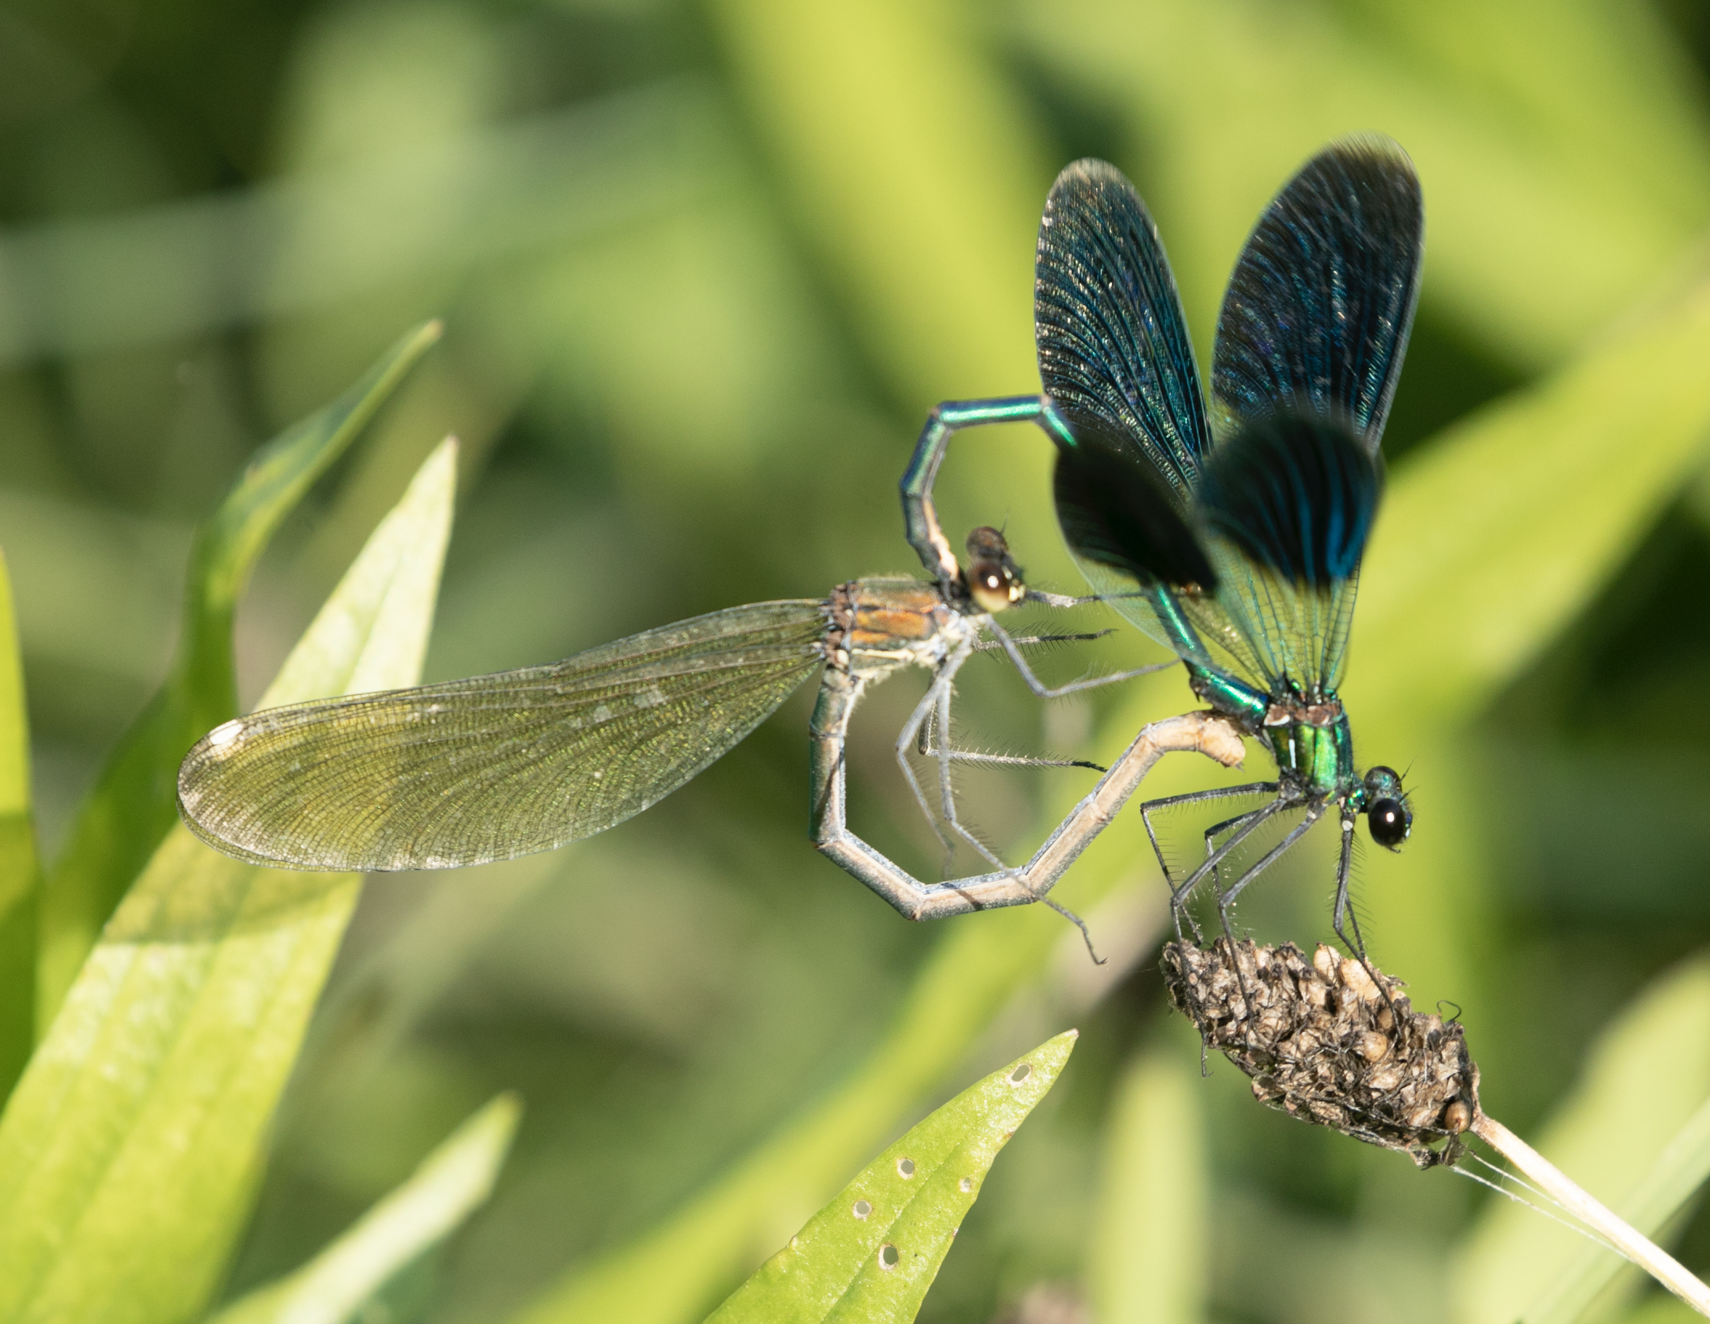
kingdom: Animalia
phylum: Arthropoda
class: Insecta
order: Odonata
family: Calopterygidae
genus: Calopteryx
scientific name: Calopteryx splendens
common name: Banded demoiselle
